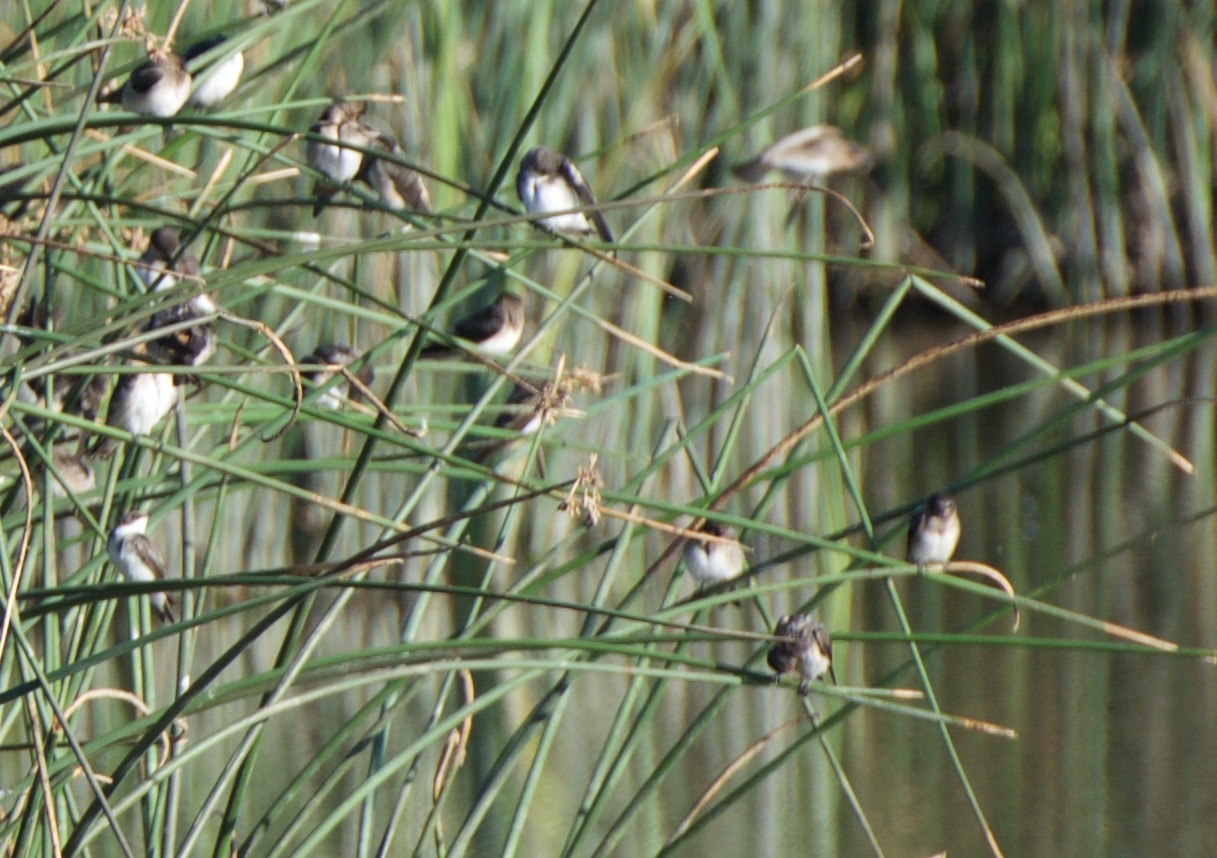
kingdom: Animalia
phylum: Chordata
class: Aves
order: Passeriformes
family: Hirundinidae
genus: Stelgidopteryx
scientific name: Stelgidopteryx serripennis
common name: Northern rough-winged swallow
